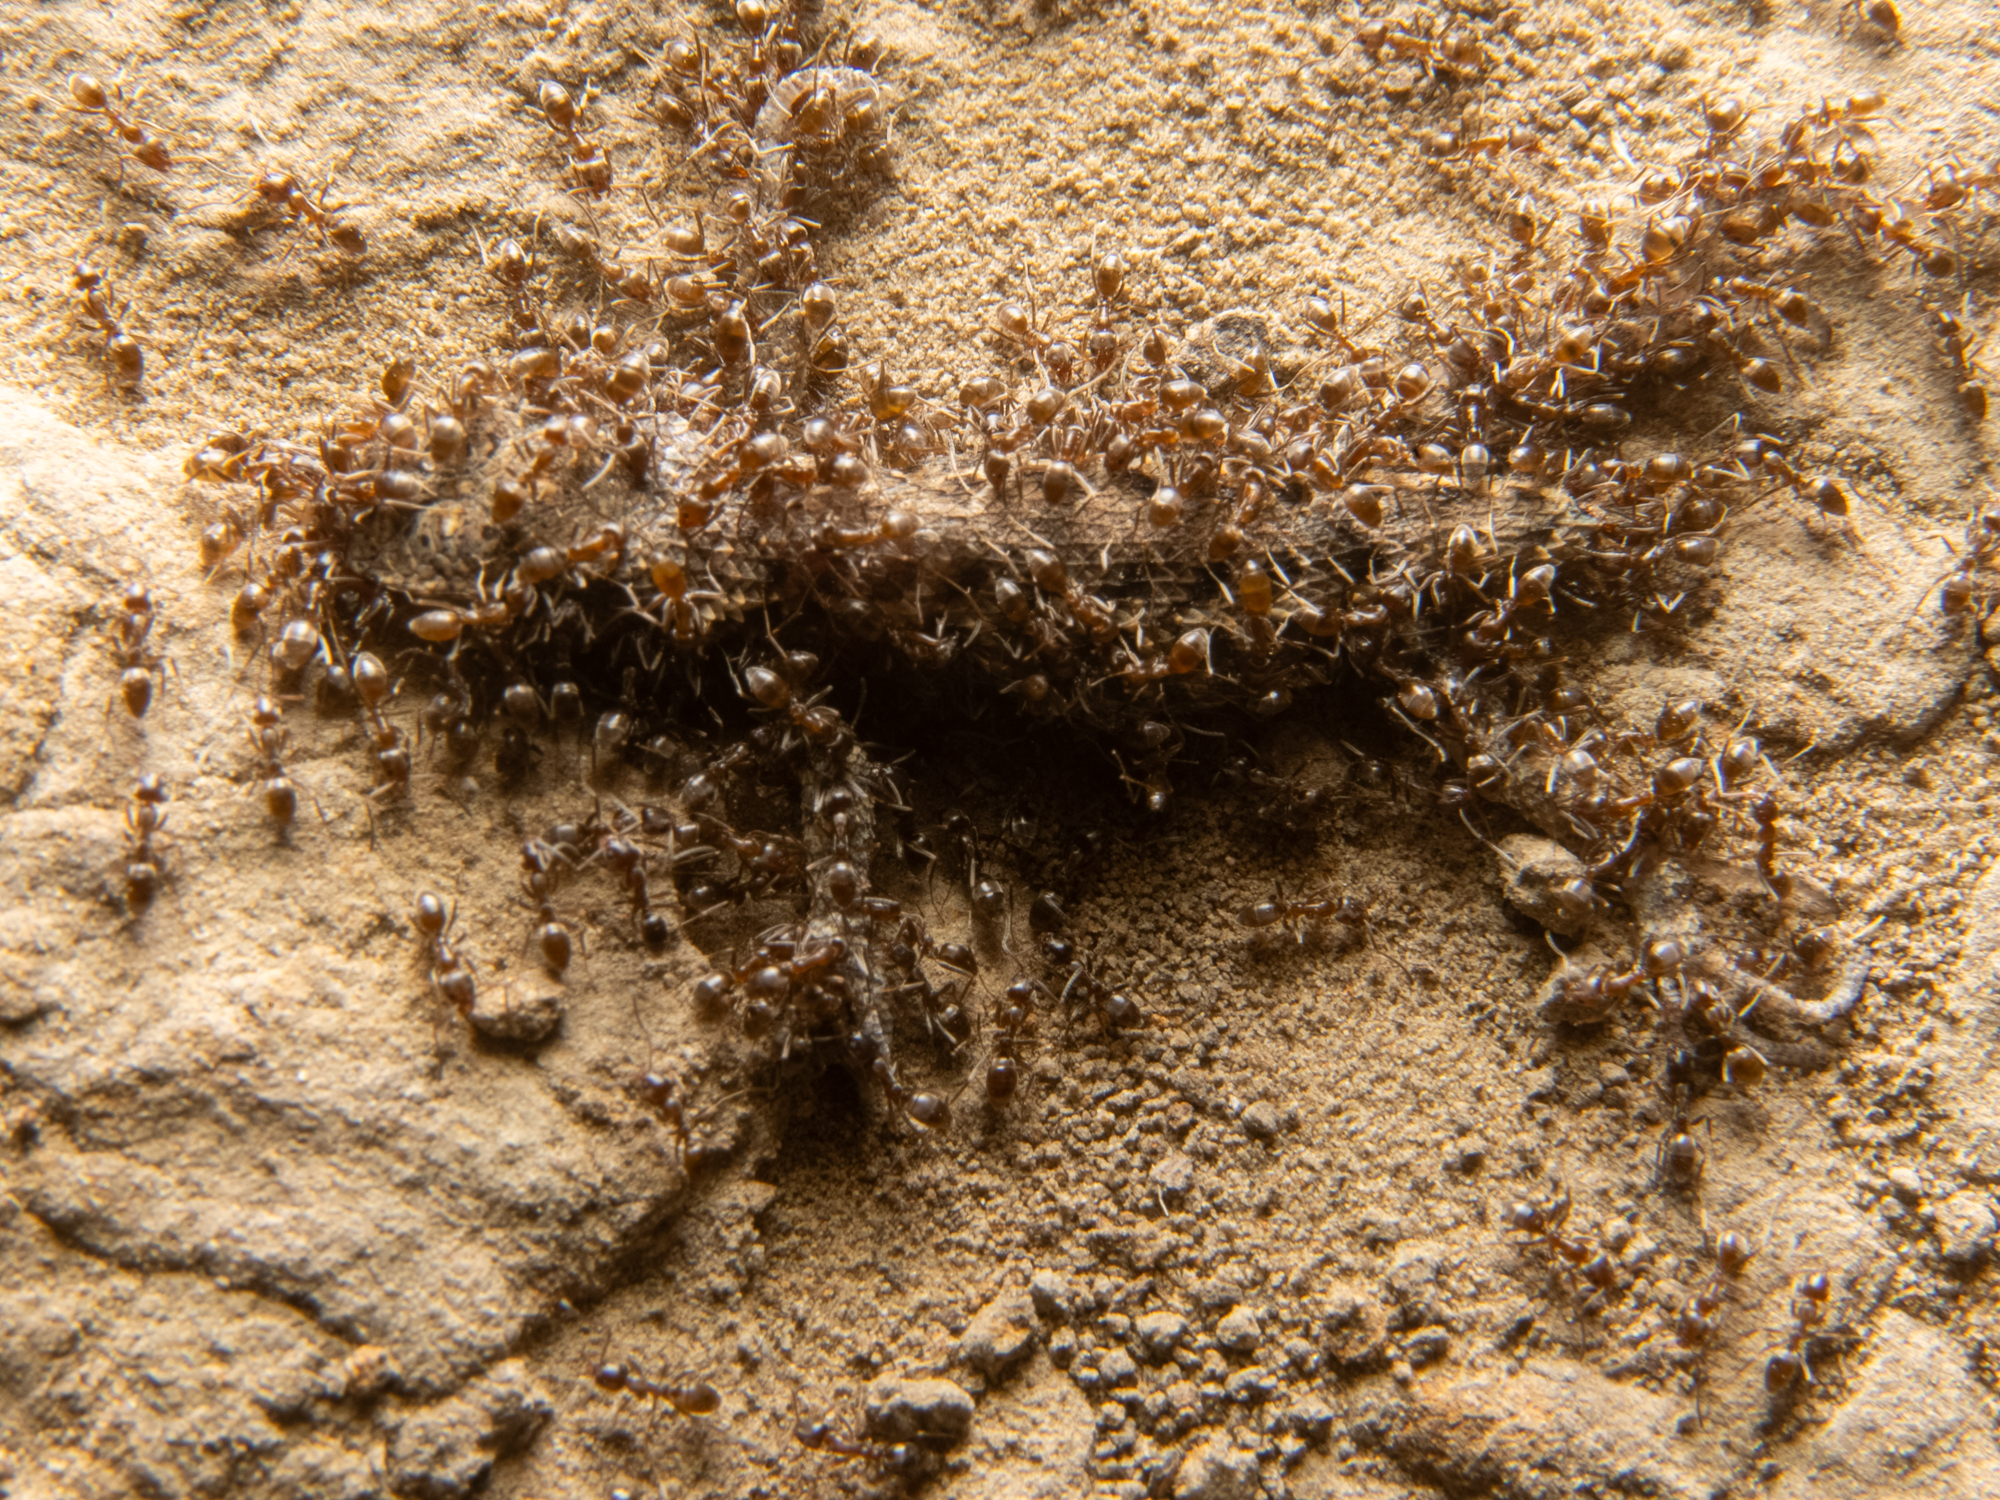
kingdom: Animalia
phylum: Arthropoda
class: Insecta
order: Hymenoptera
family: Formicidae
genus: Linepithema
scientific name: Linepithema humile
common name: Argentine ant
